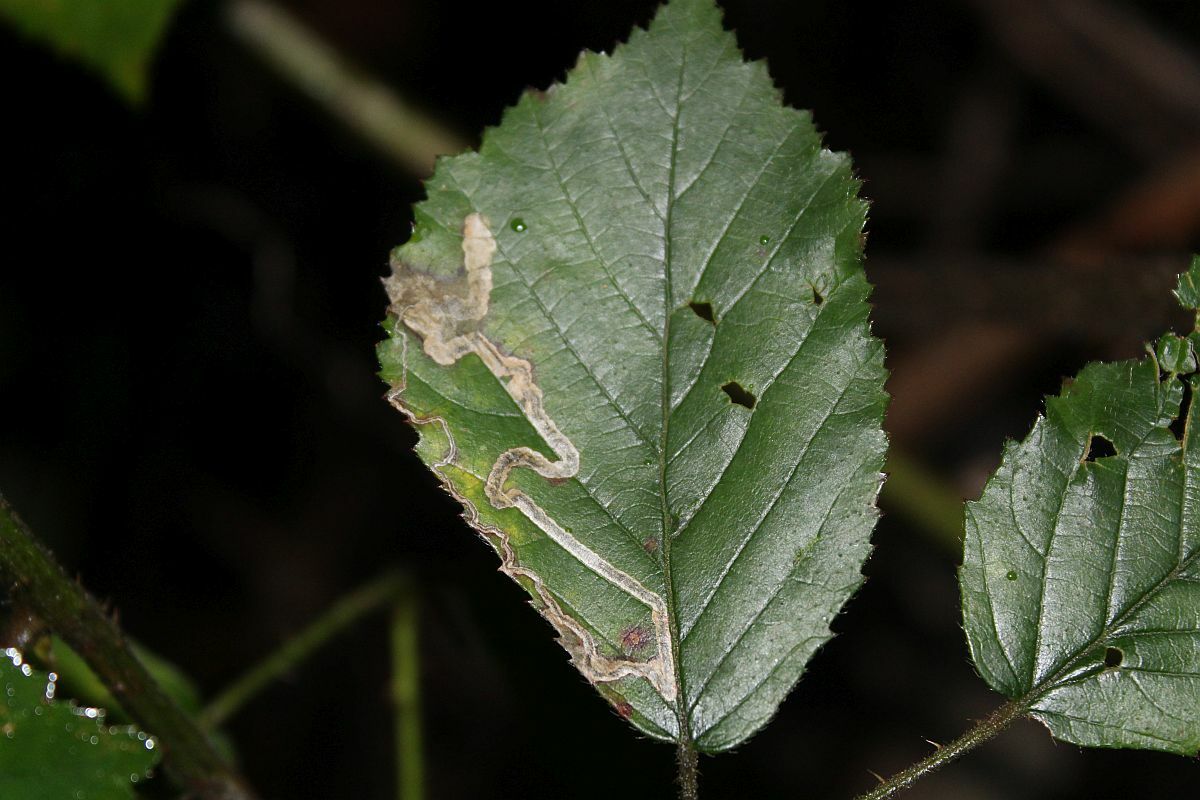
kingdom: Animalia
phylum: Arthropoda
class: Insecta
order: Lepidoptera
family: Nepticulidae
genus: Stigmella
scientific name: Stigmella aurella
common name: Golden pigmy
